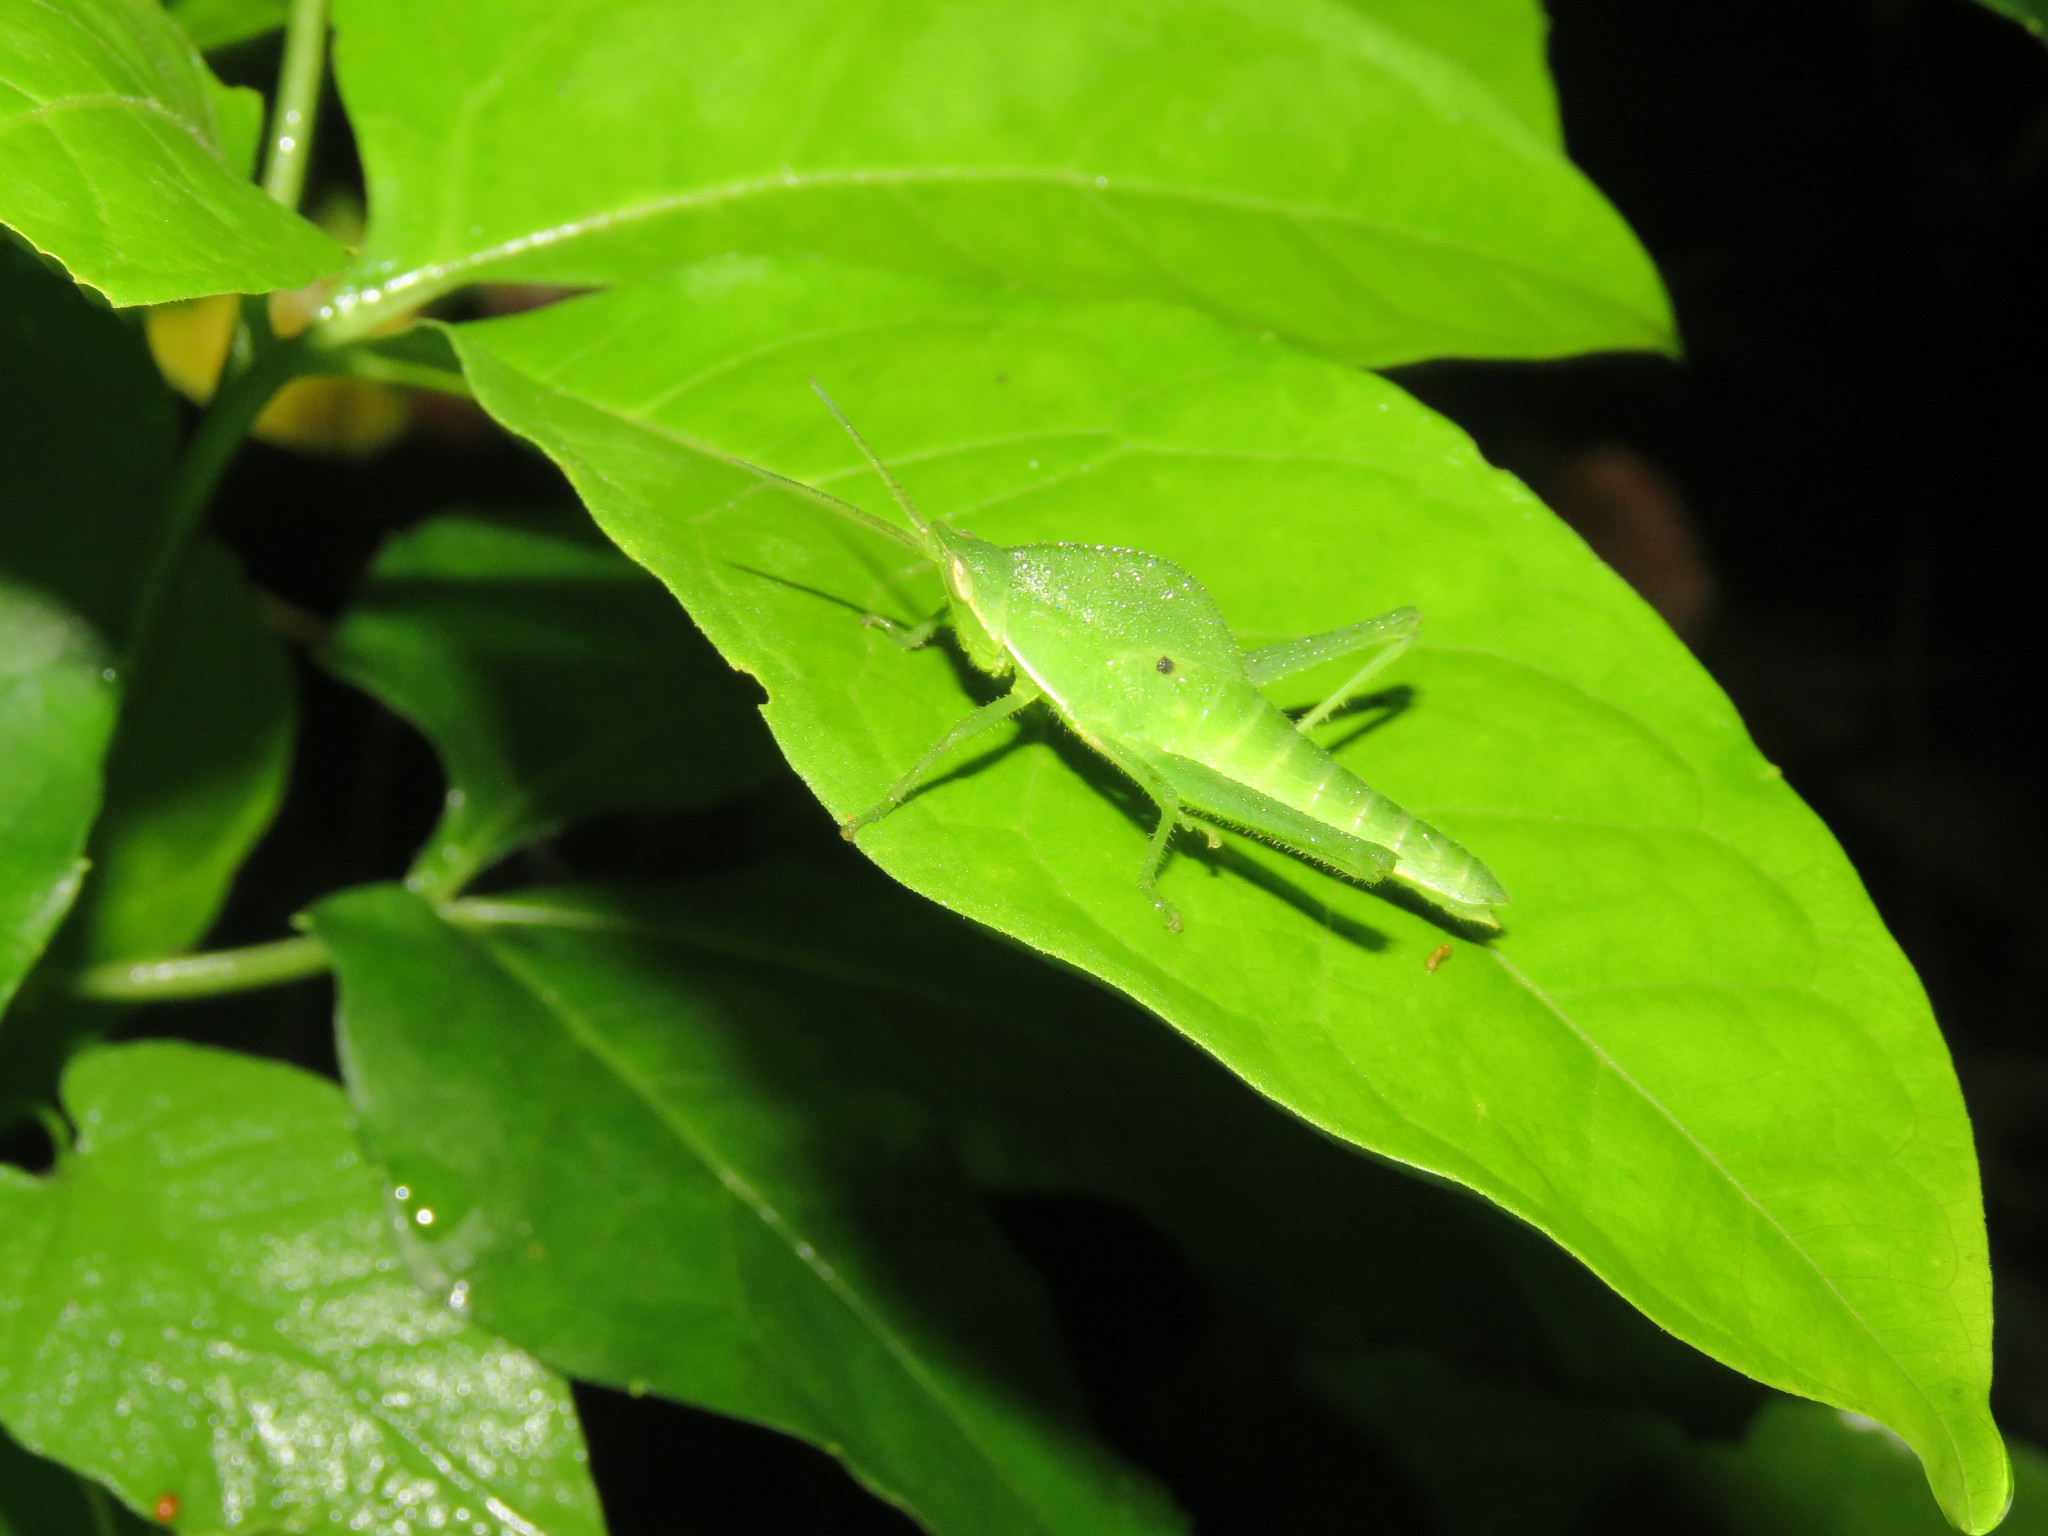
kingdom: Animalia
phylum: Arthropoda
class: Insecta
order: Orthoptera
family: Romaleidae
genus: Prionolopha
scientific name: Prionolopha serrata
